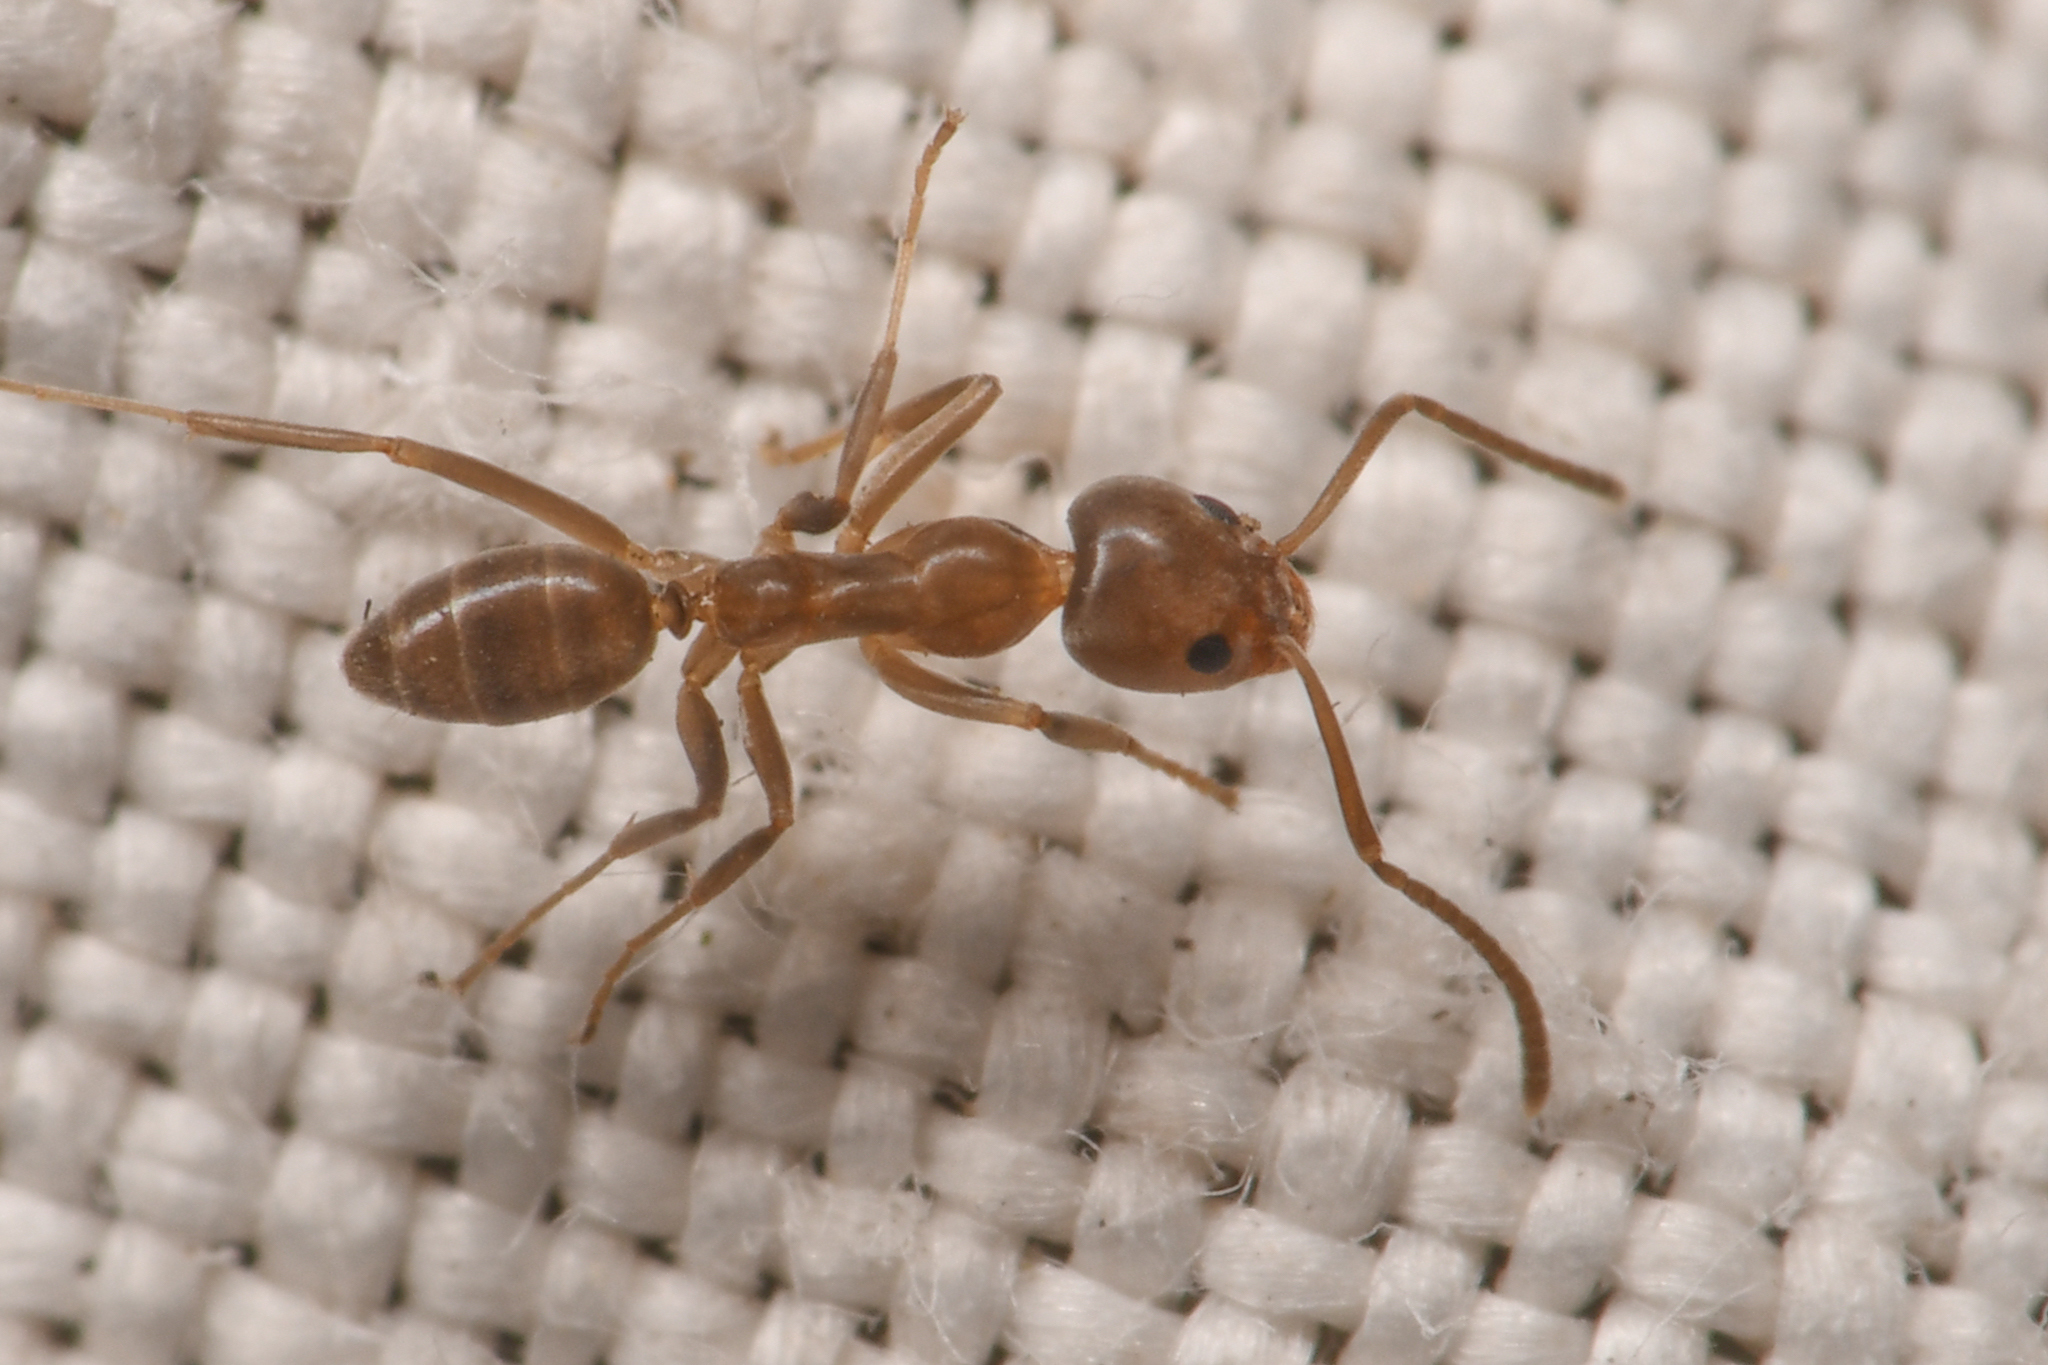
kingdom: Animalia
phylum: Arthropoda
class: Insecta
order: Hymenoptera
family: Formicidae
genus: Linepithema
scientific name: Linepithema humile
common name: Argentine ant
